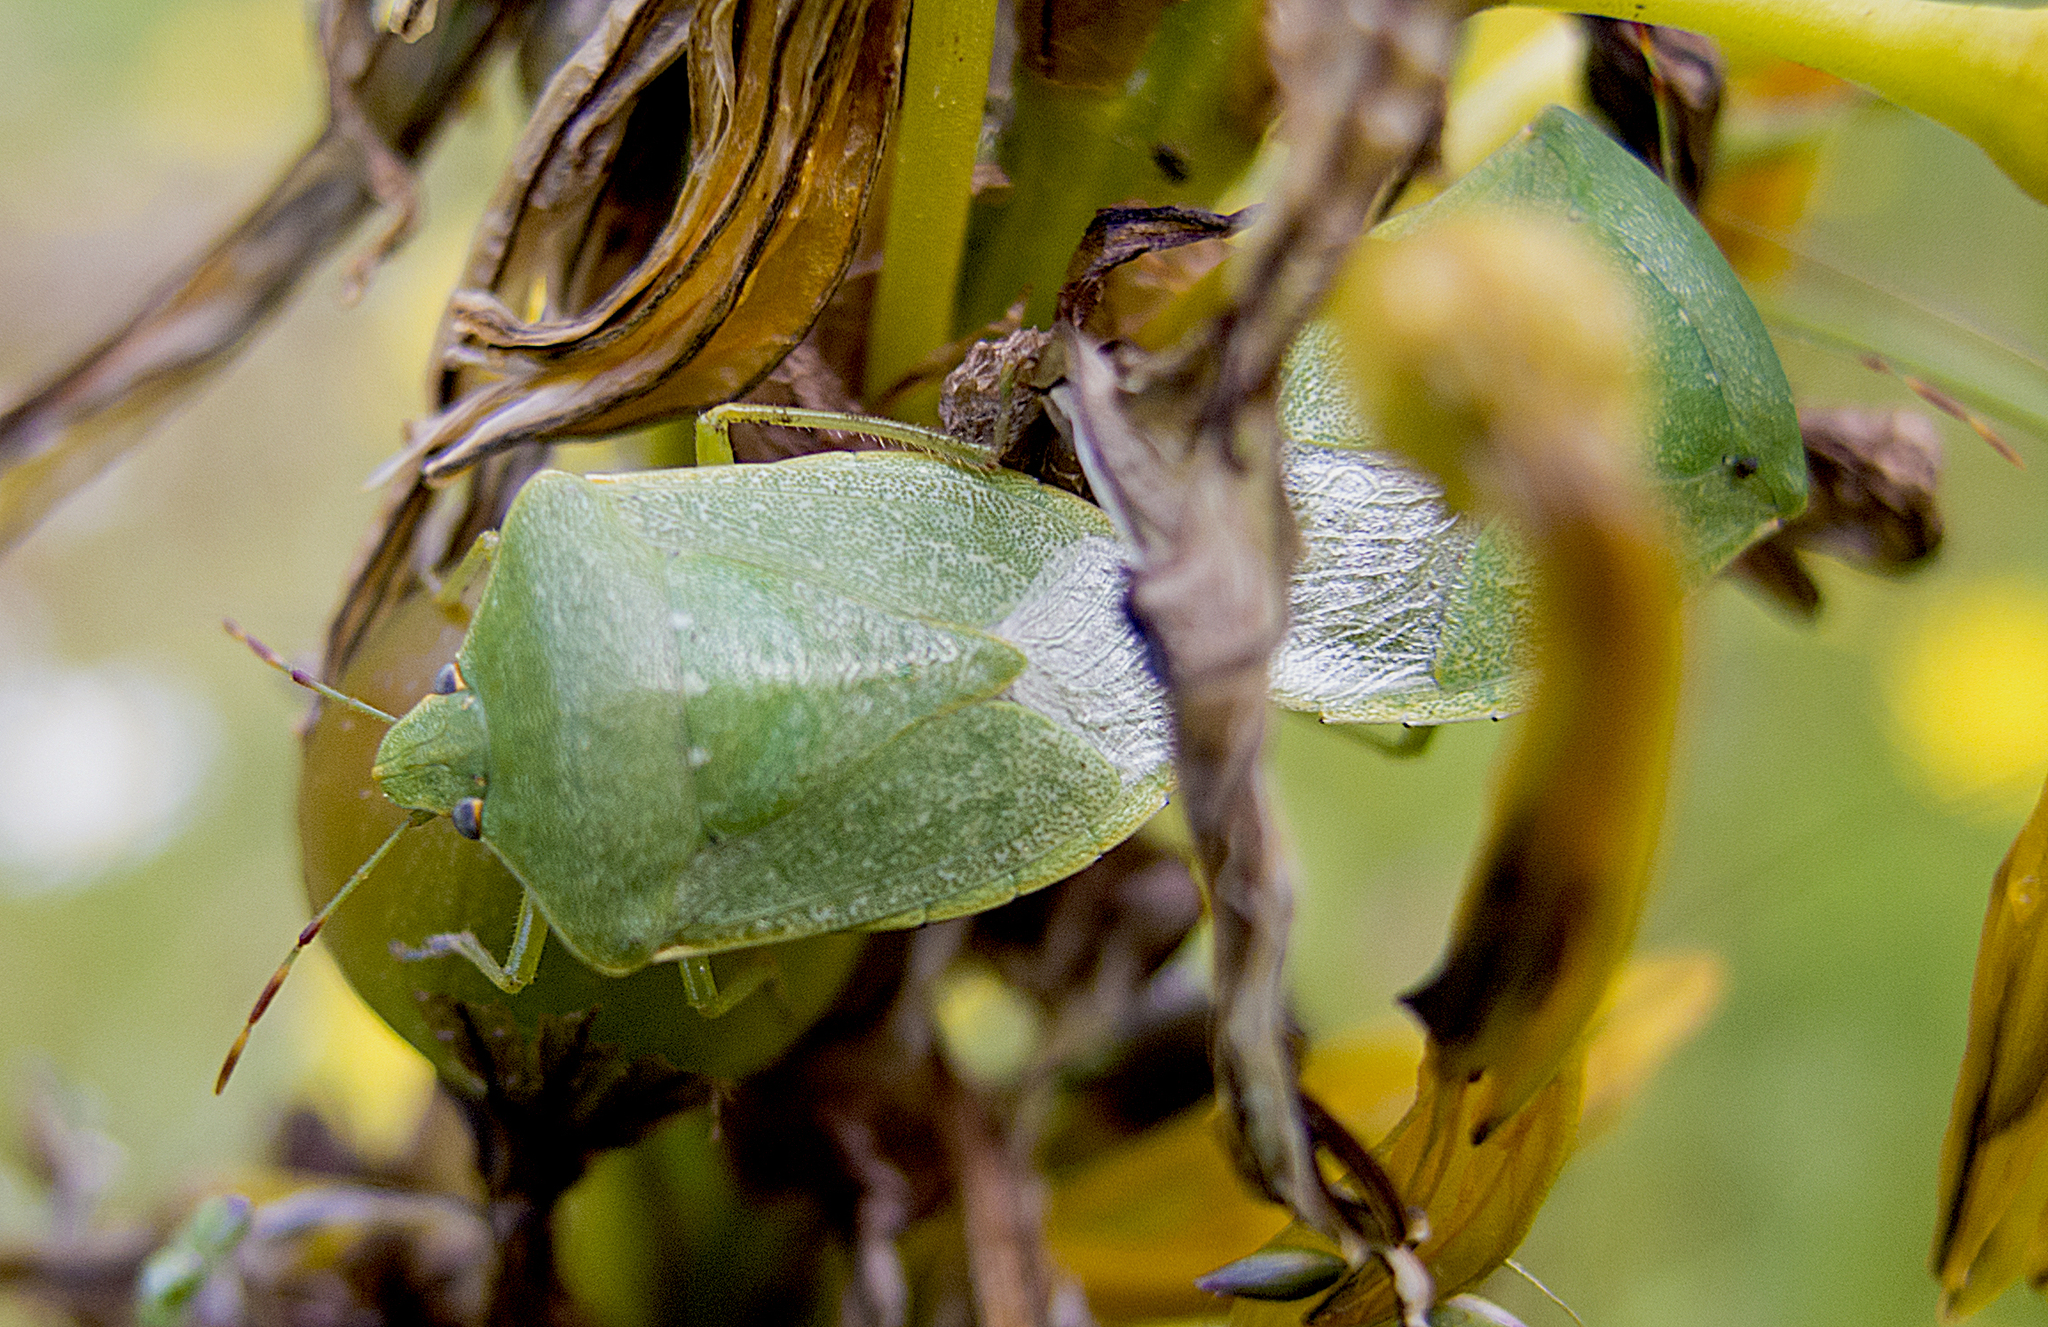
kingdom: Animalia
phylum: Arthropoda
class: Insecta
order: Hemiptera
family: Pentatomidae
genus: Nezara
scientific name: Nezara viridula
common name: Southern green stink bug
